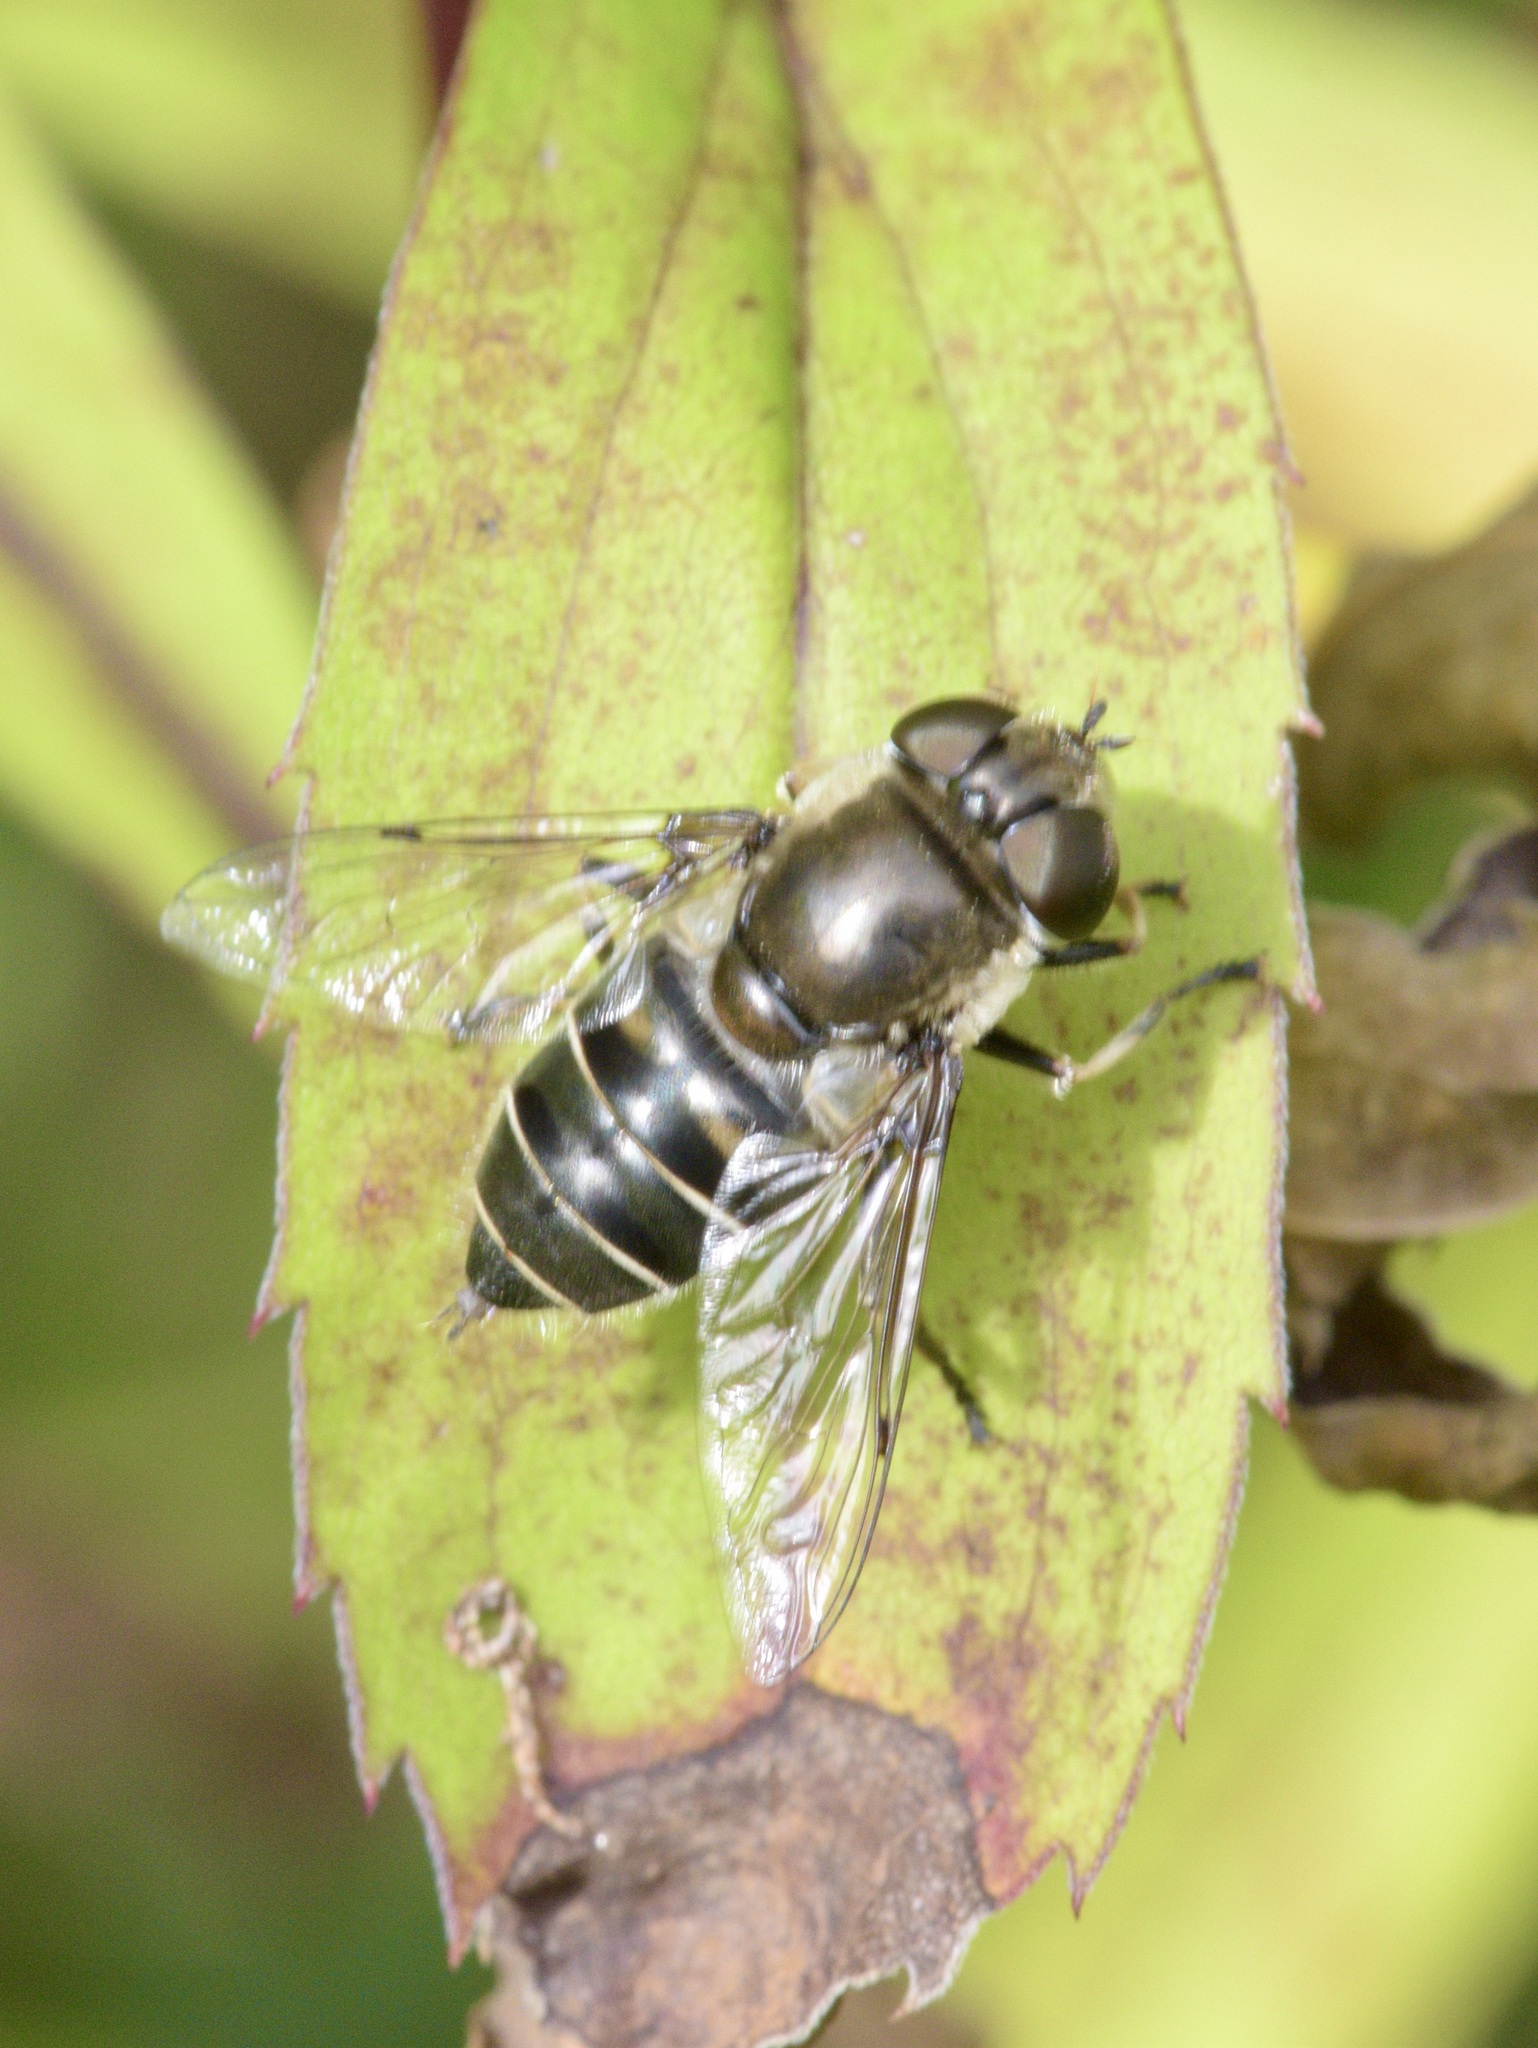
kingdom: Animalia
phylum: Arthropoda
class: Insecta
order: Diptera
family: Syrphidae
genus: Eristalis
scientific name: Eristalis dimidiata
